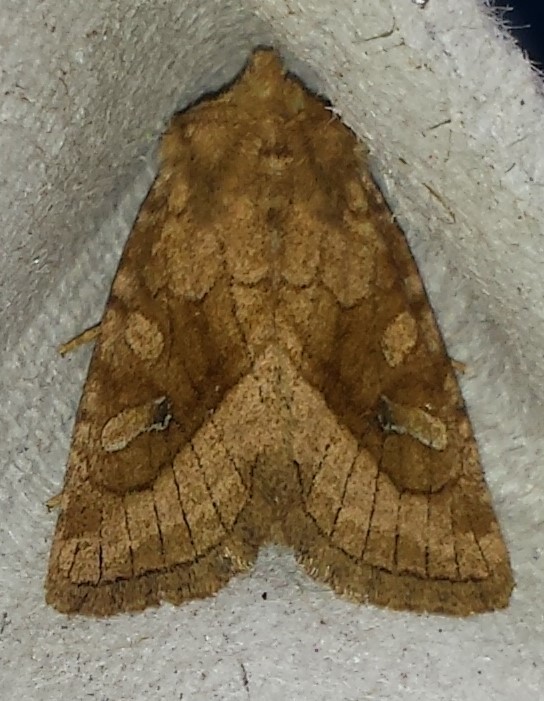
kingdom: Animalia
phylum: Arthropoda
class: Insecta
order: Lepidoptera
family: Noctuidae
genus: Lacinipolia
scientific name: Lacinipolia lorea
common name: Bridled arches moth
